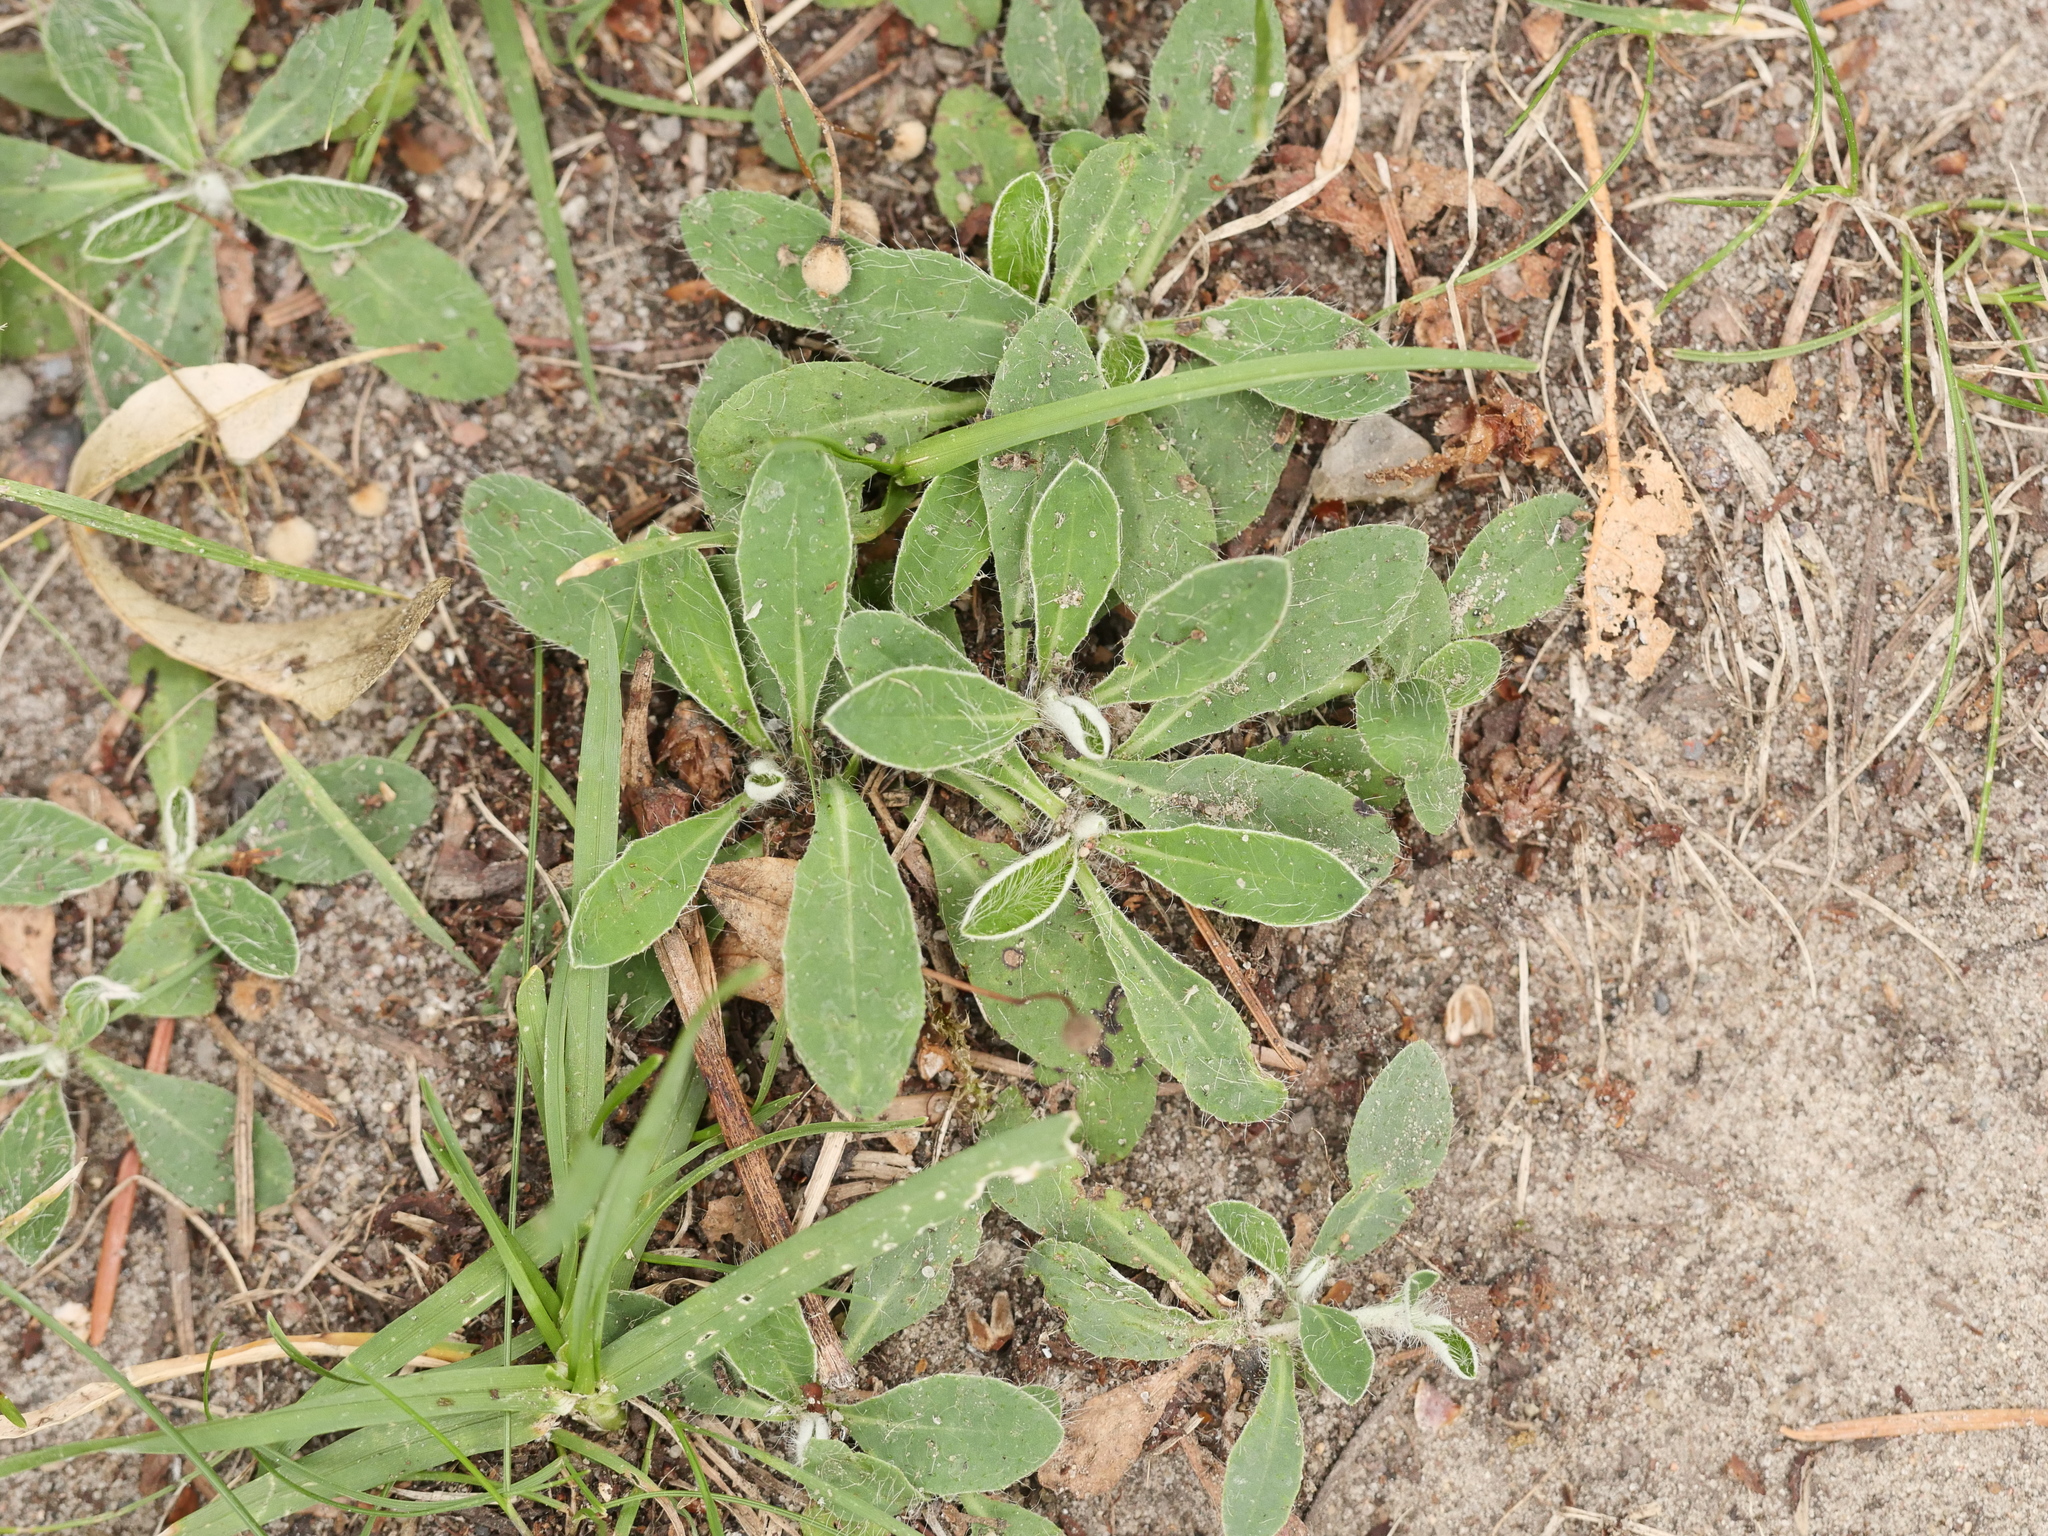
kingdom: Plantae
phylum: Tracheophyta
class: Magnoliopsida
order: Asterales
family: Asteraceae
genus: Pilosella
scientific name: Pilosella officinarum
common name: Mouse-ear hawkweed
